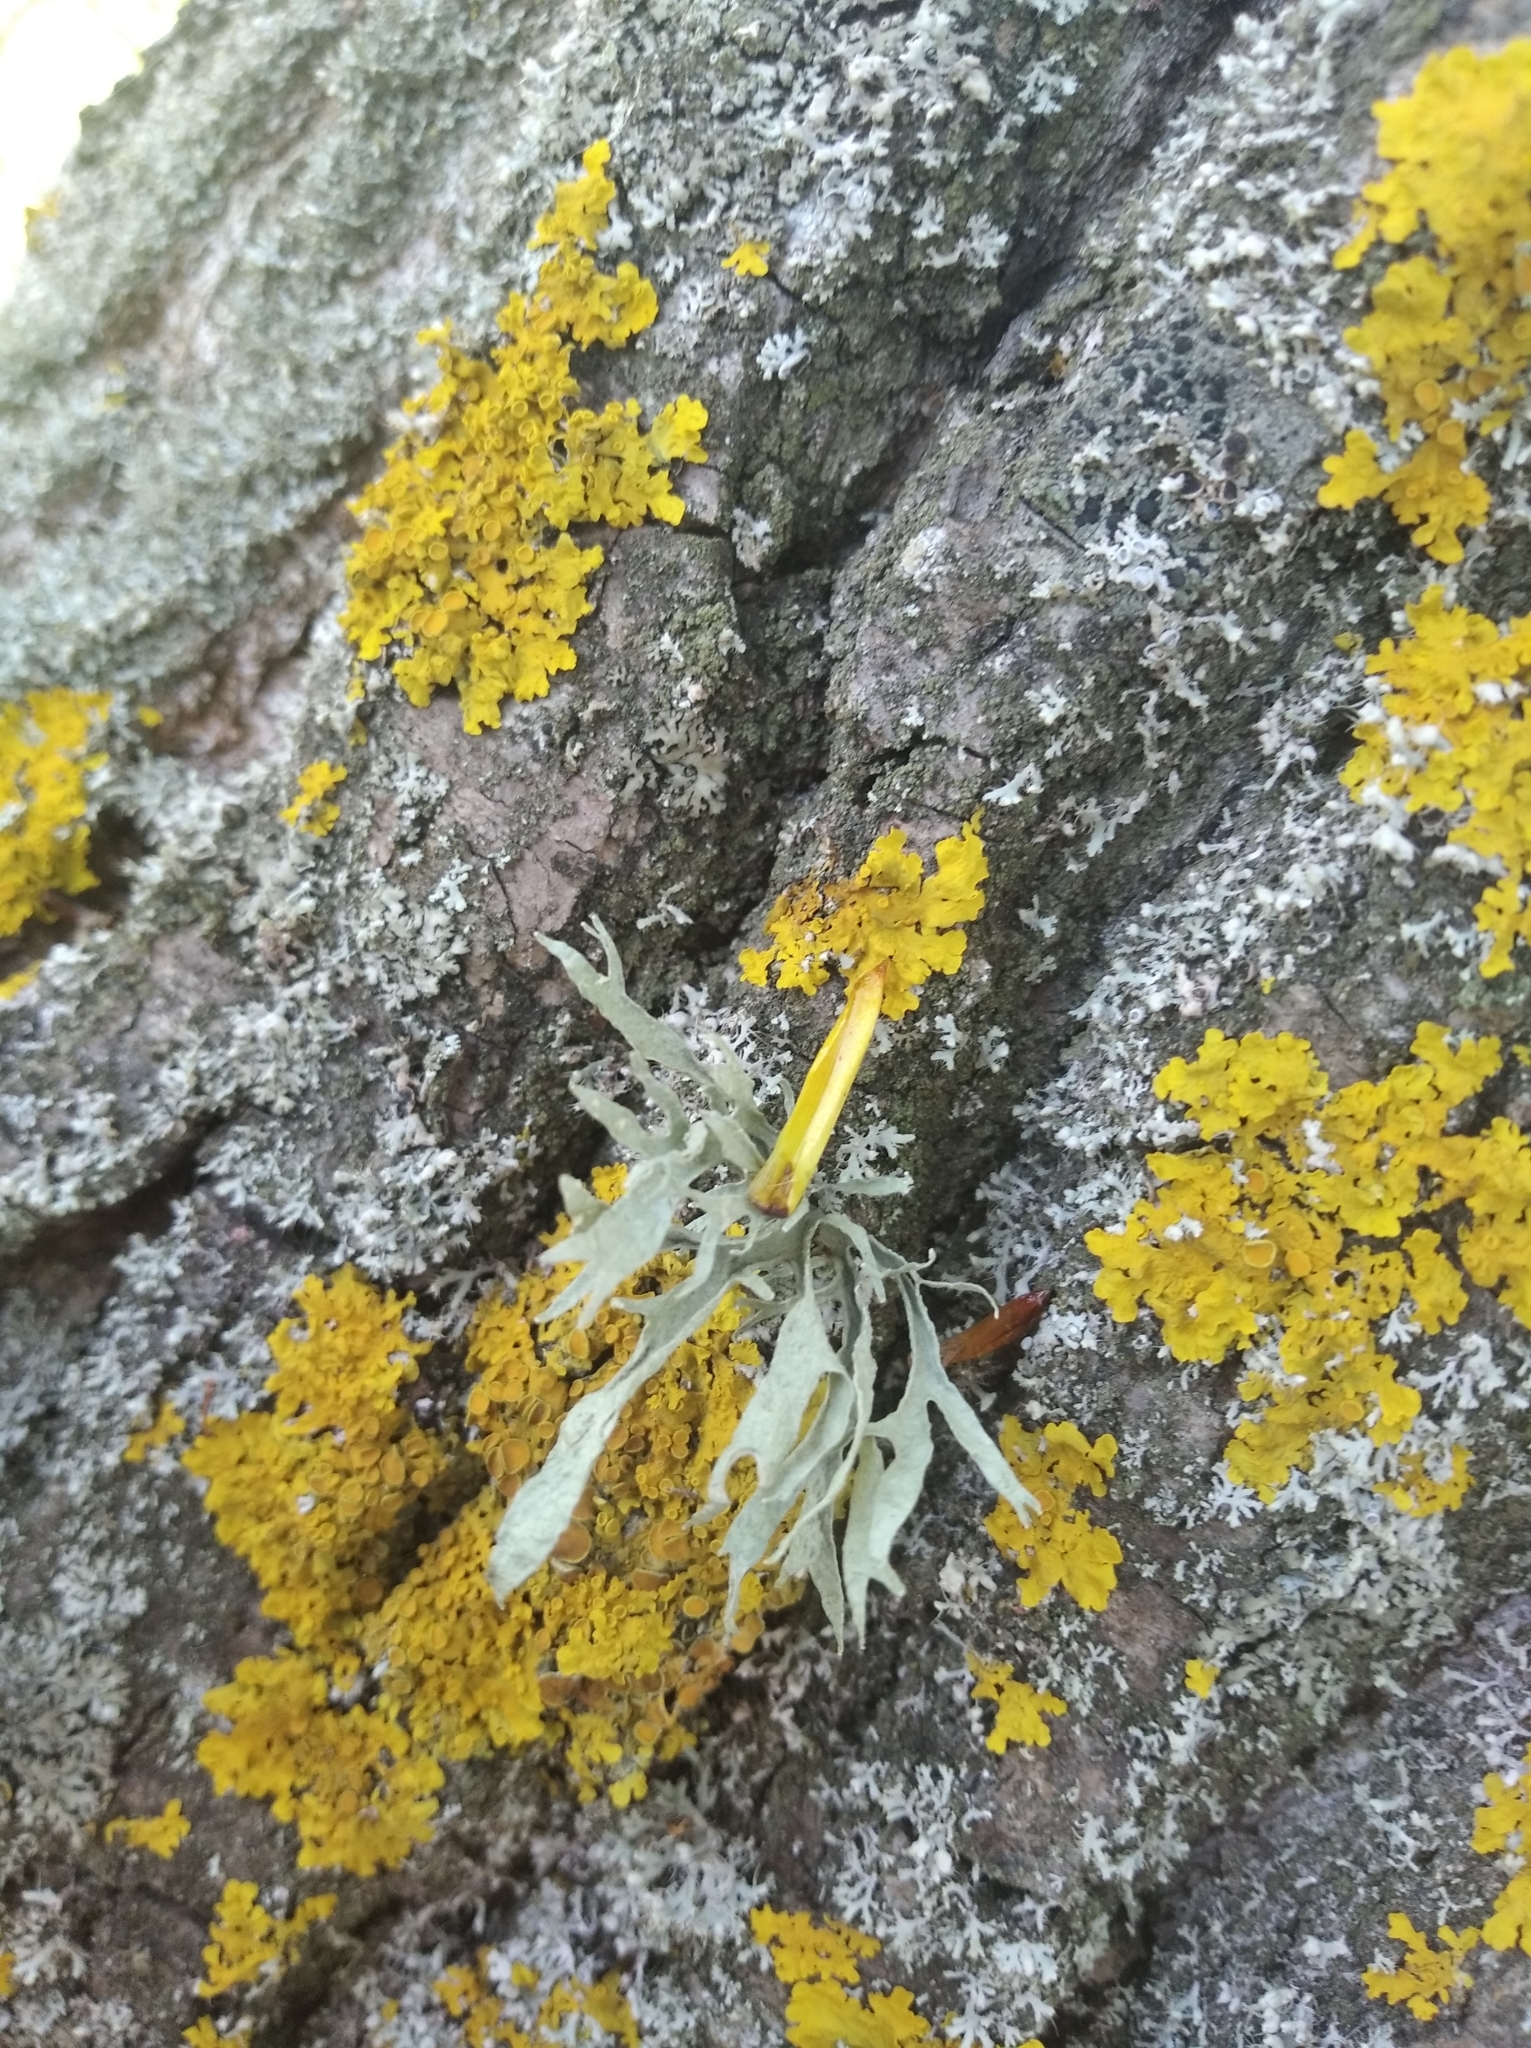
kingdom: Fungi
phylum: Ascomycota
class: Lecanoromycetes
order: Lecanorales
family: Ramalinaceae
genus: Ramalina
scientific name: Ramalina fraxinea
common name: Cartilage lichen
